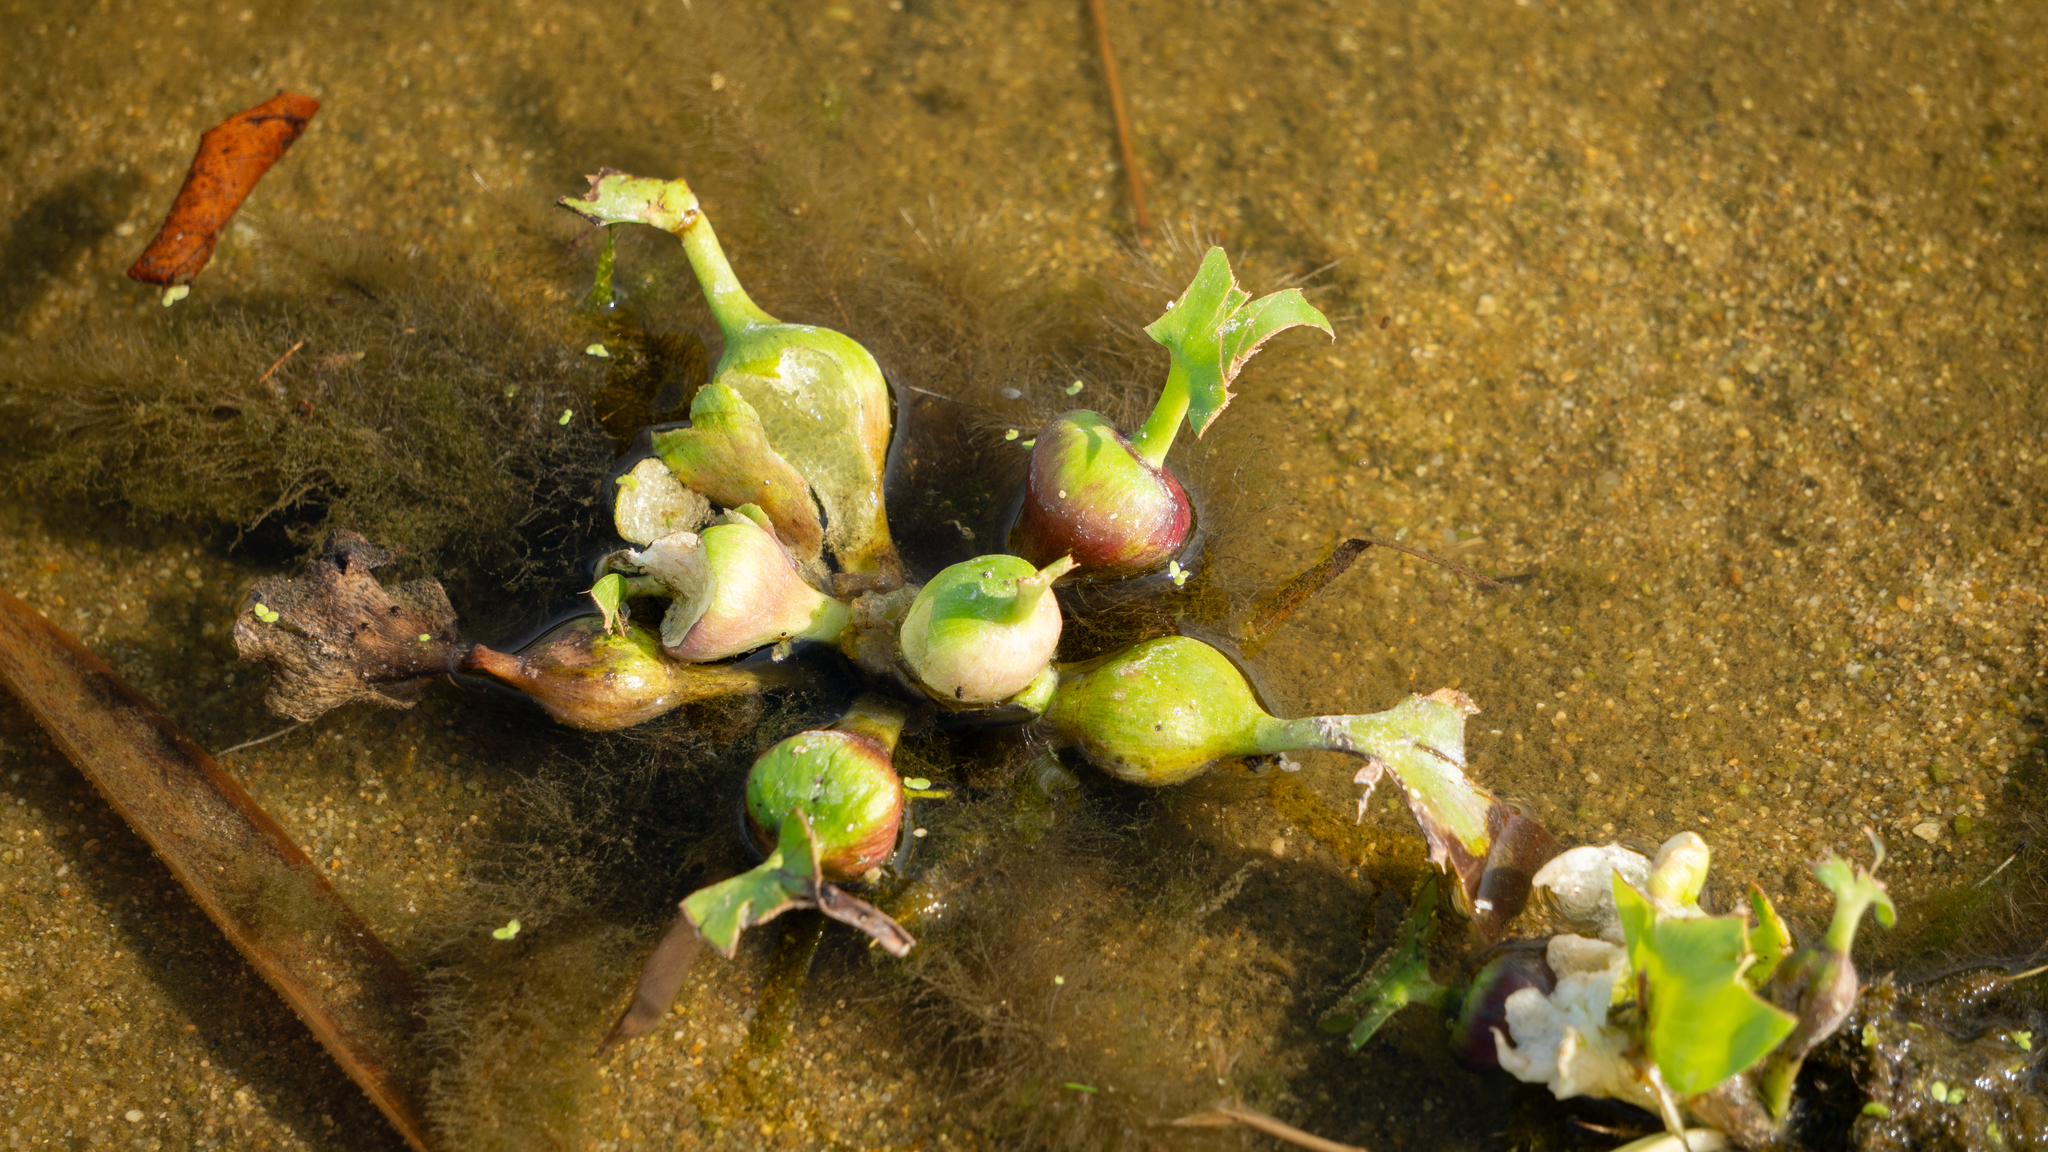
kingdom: Plantae
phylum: Tracheophyta
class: Liliopsida
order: Commelinales
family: Pontederiaceae
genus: Pontederia
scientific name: Pontederia crassipes
